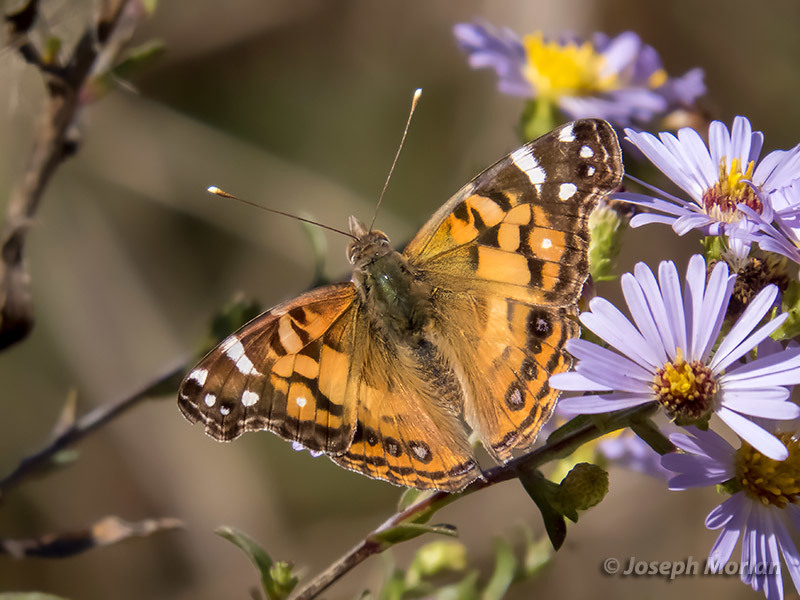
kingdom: Animalia
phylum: Arthropoda
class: Insecta
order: Lepidoptera
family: Nymphalidae
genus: Vanessa
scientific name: Vanessa virginiensis
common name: American lady
